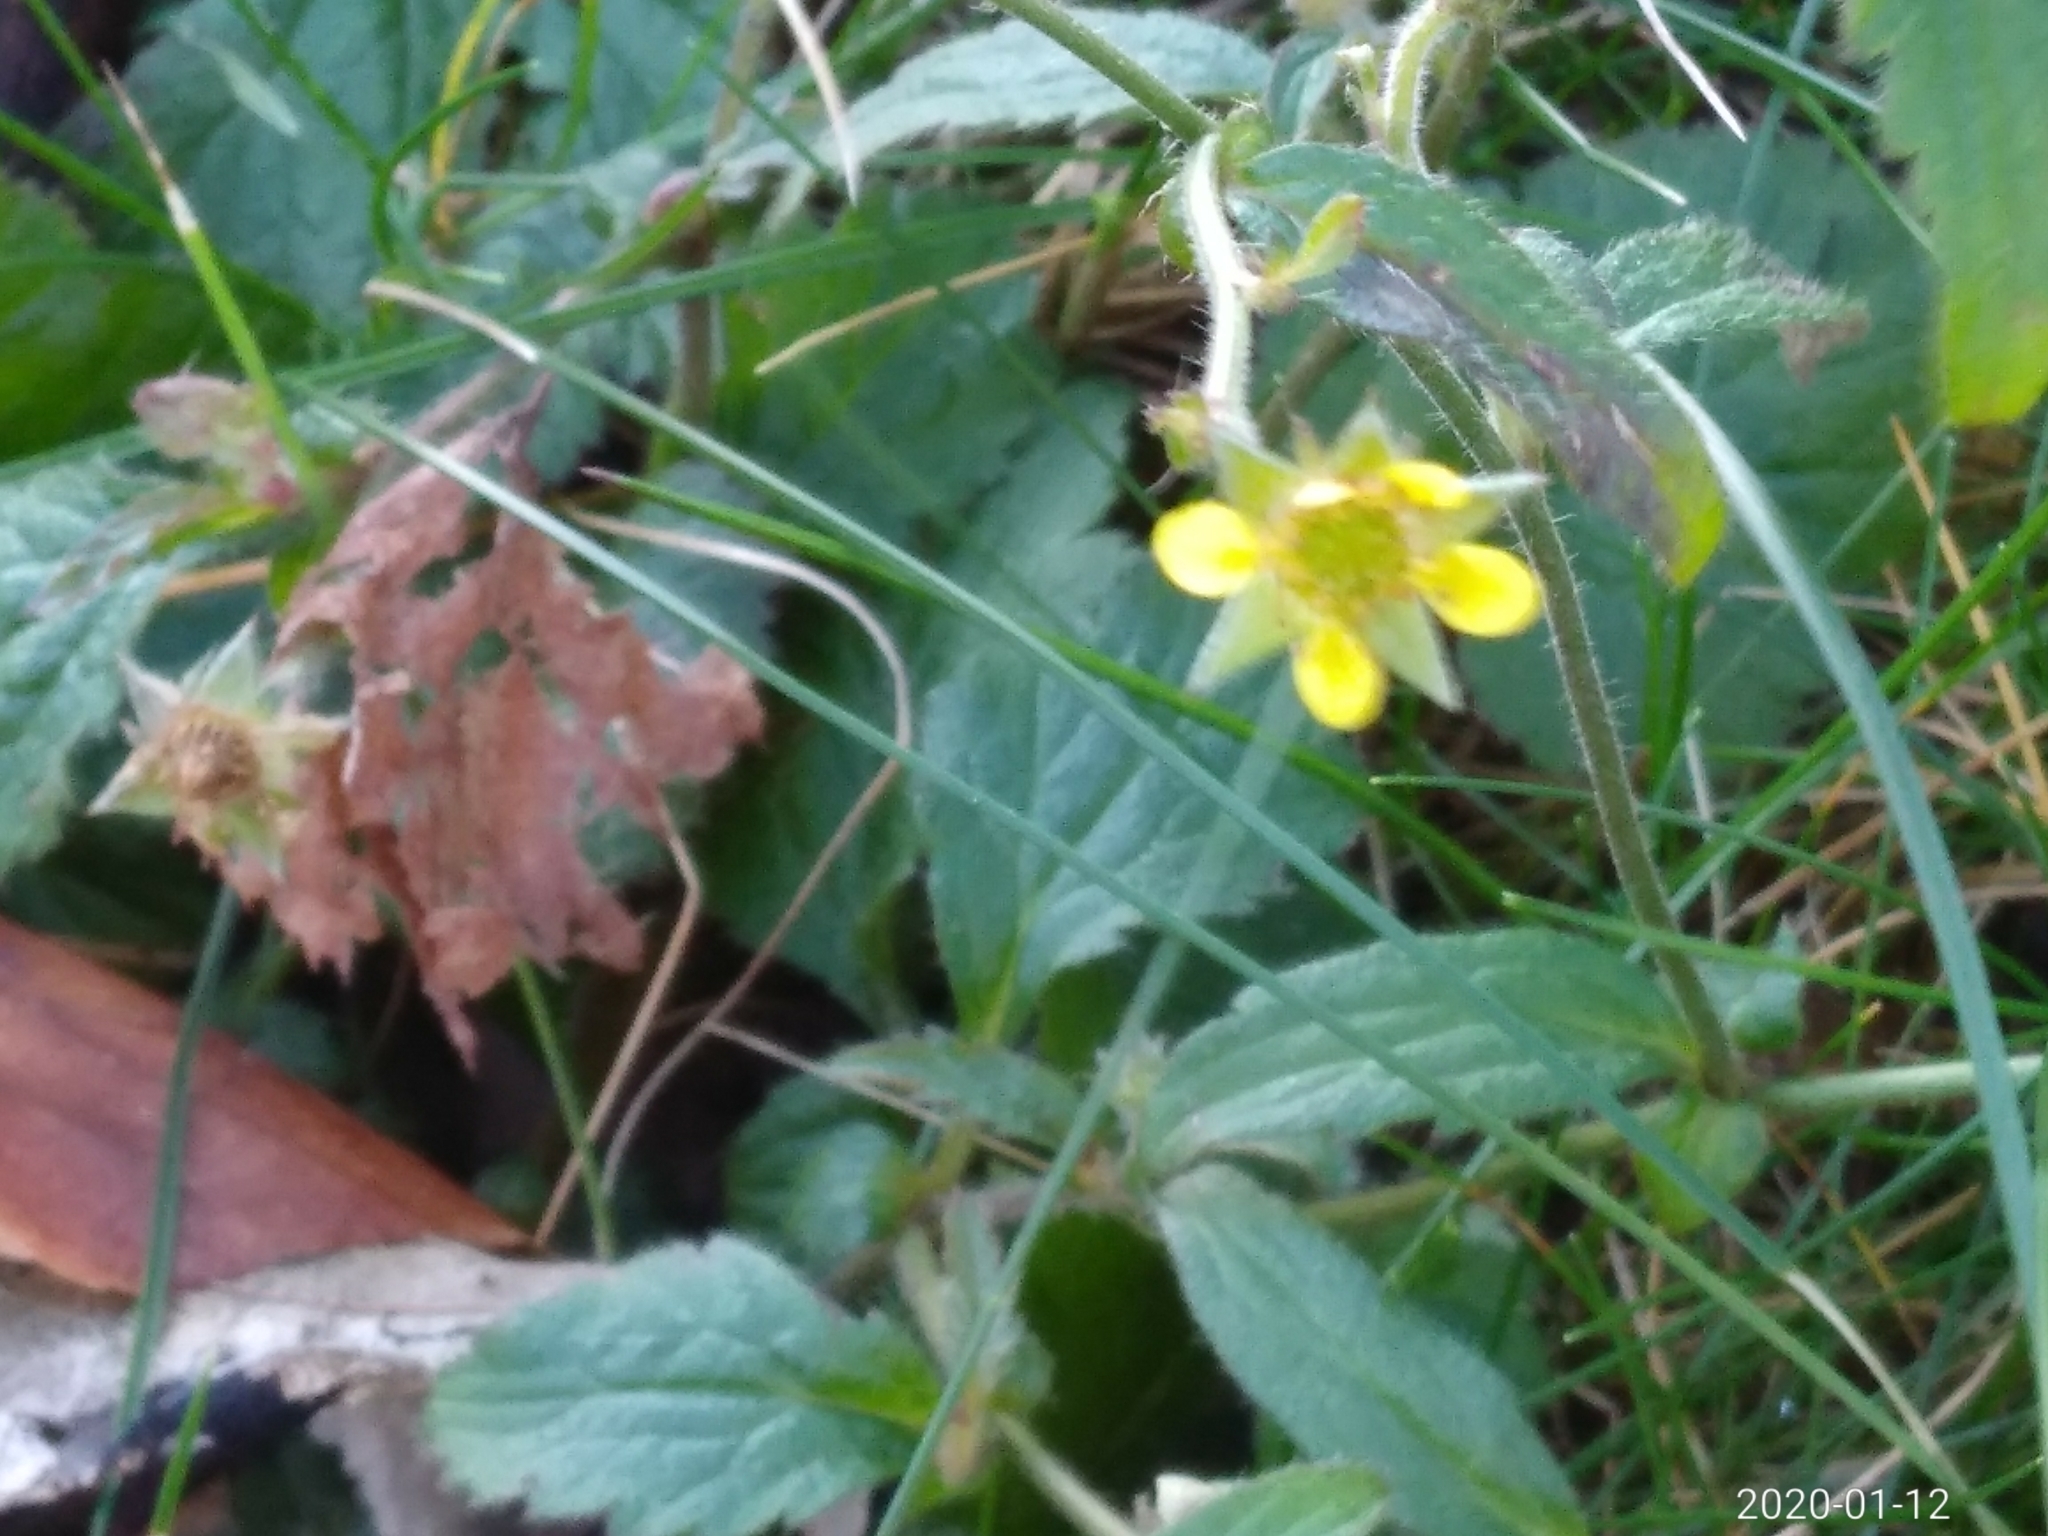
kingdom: Plantae
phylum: Tracheophyta
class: Magnoliopsida
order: Rosales
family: Rosaceae
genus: Geum
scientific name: Geum urbanum
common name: Wood avens
